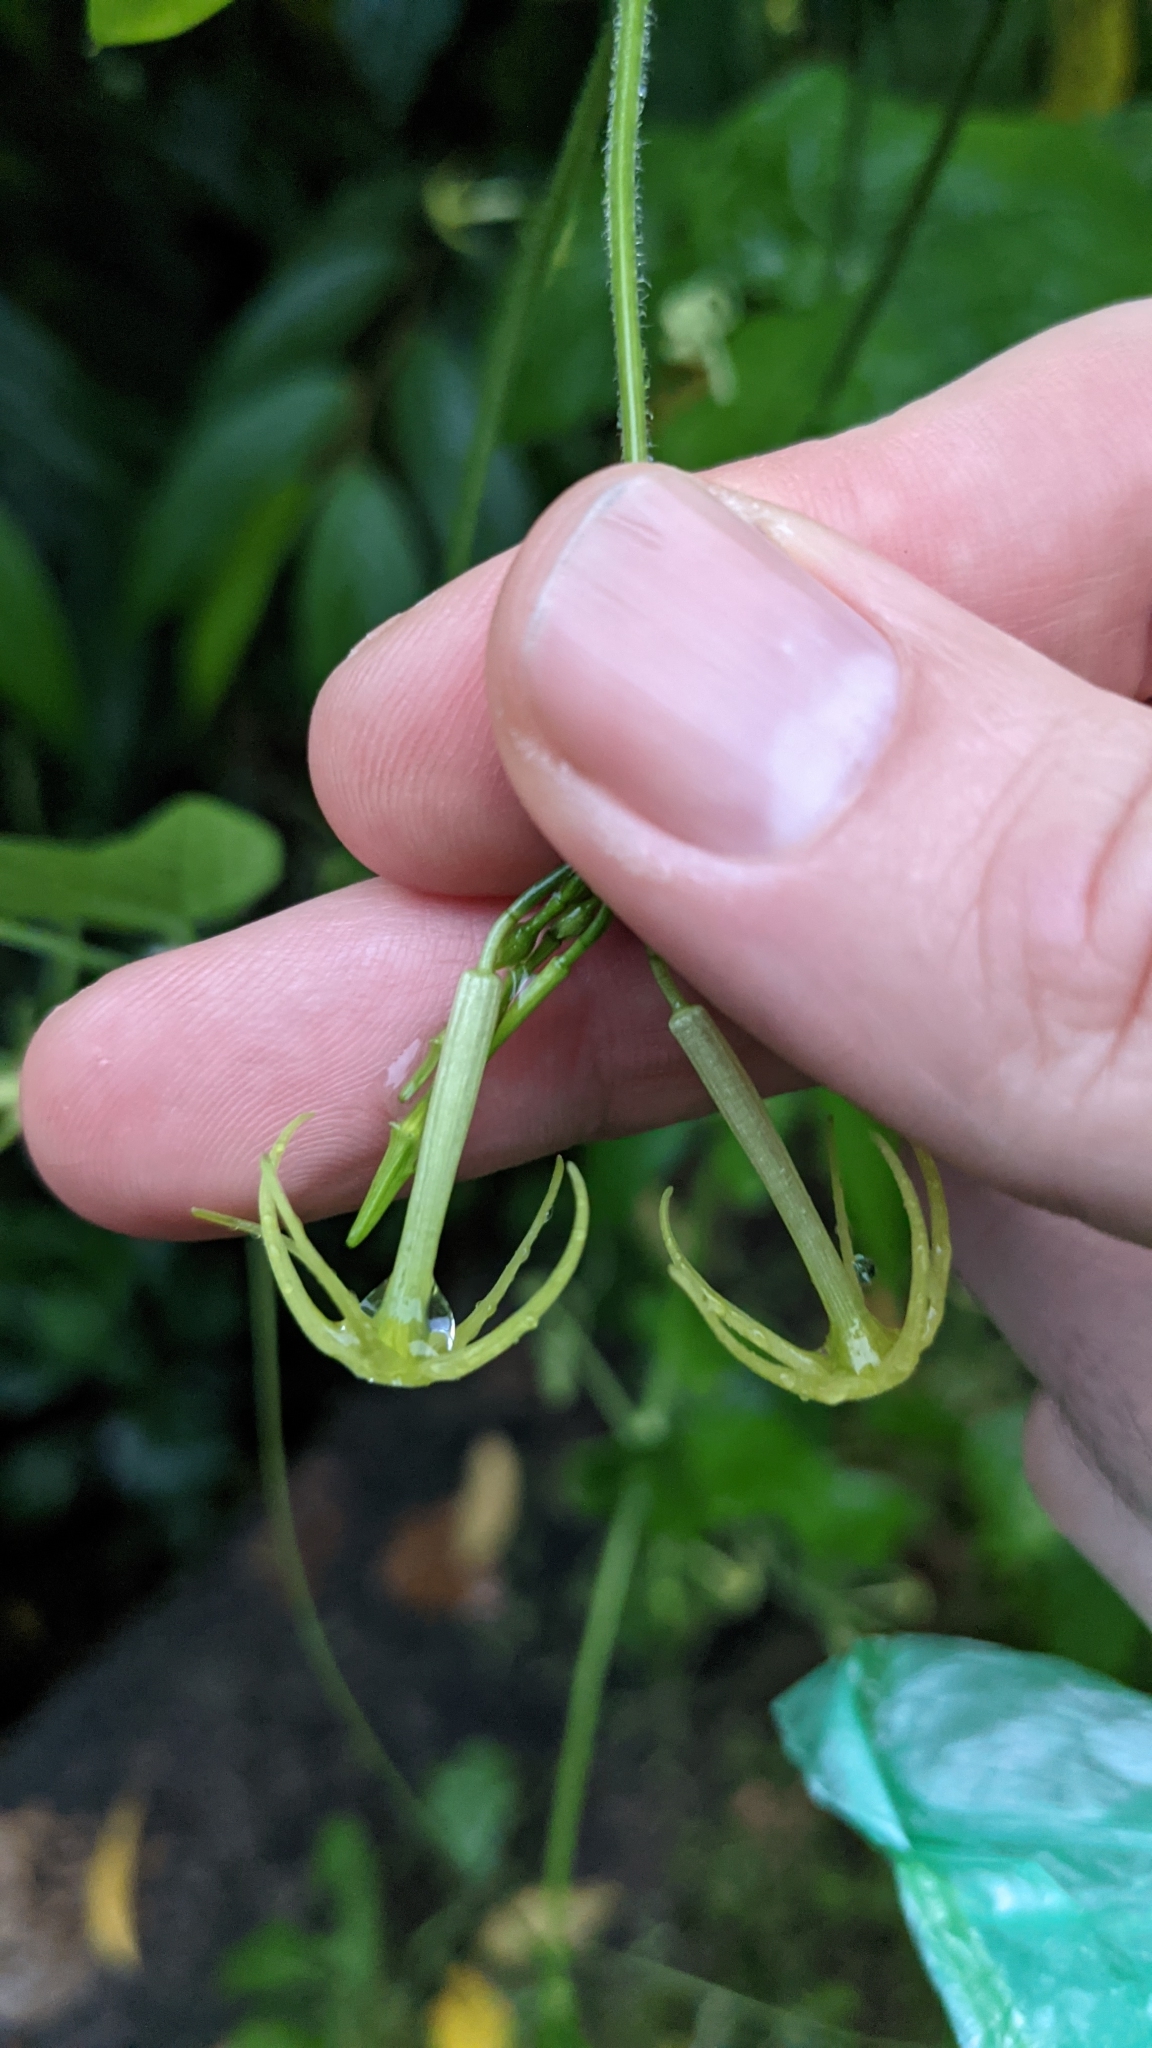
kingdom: Plantae
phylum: Tracheophyta
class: Magnoliopsida
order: Cucurbitales
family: Cucurbitaceae
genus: Cyclanthera
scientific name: Cyclanthera carthagenensis
